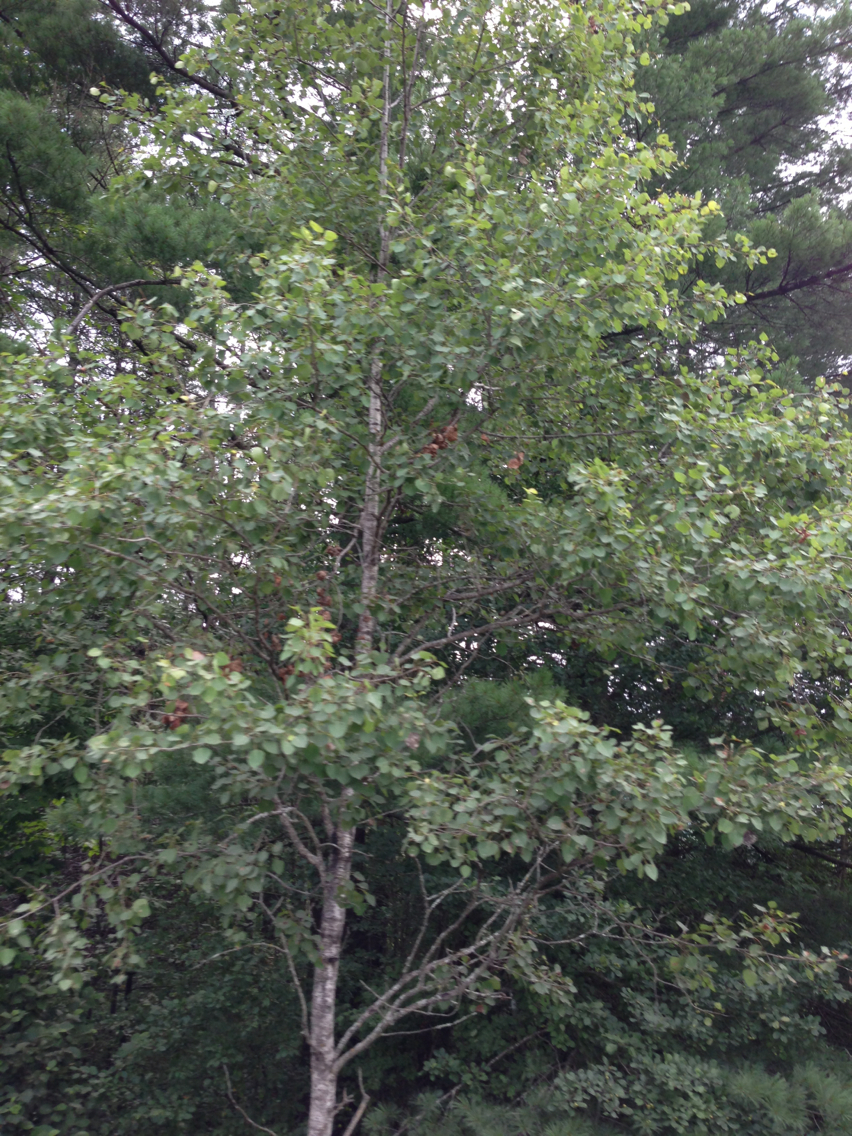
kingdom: Plantae
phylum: Tracheophyta
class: Magnoliopsida
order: Malpighiales
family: Salicaceae
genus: Populus
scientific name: Populus tremuloides
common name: Quaking aspen
